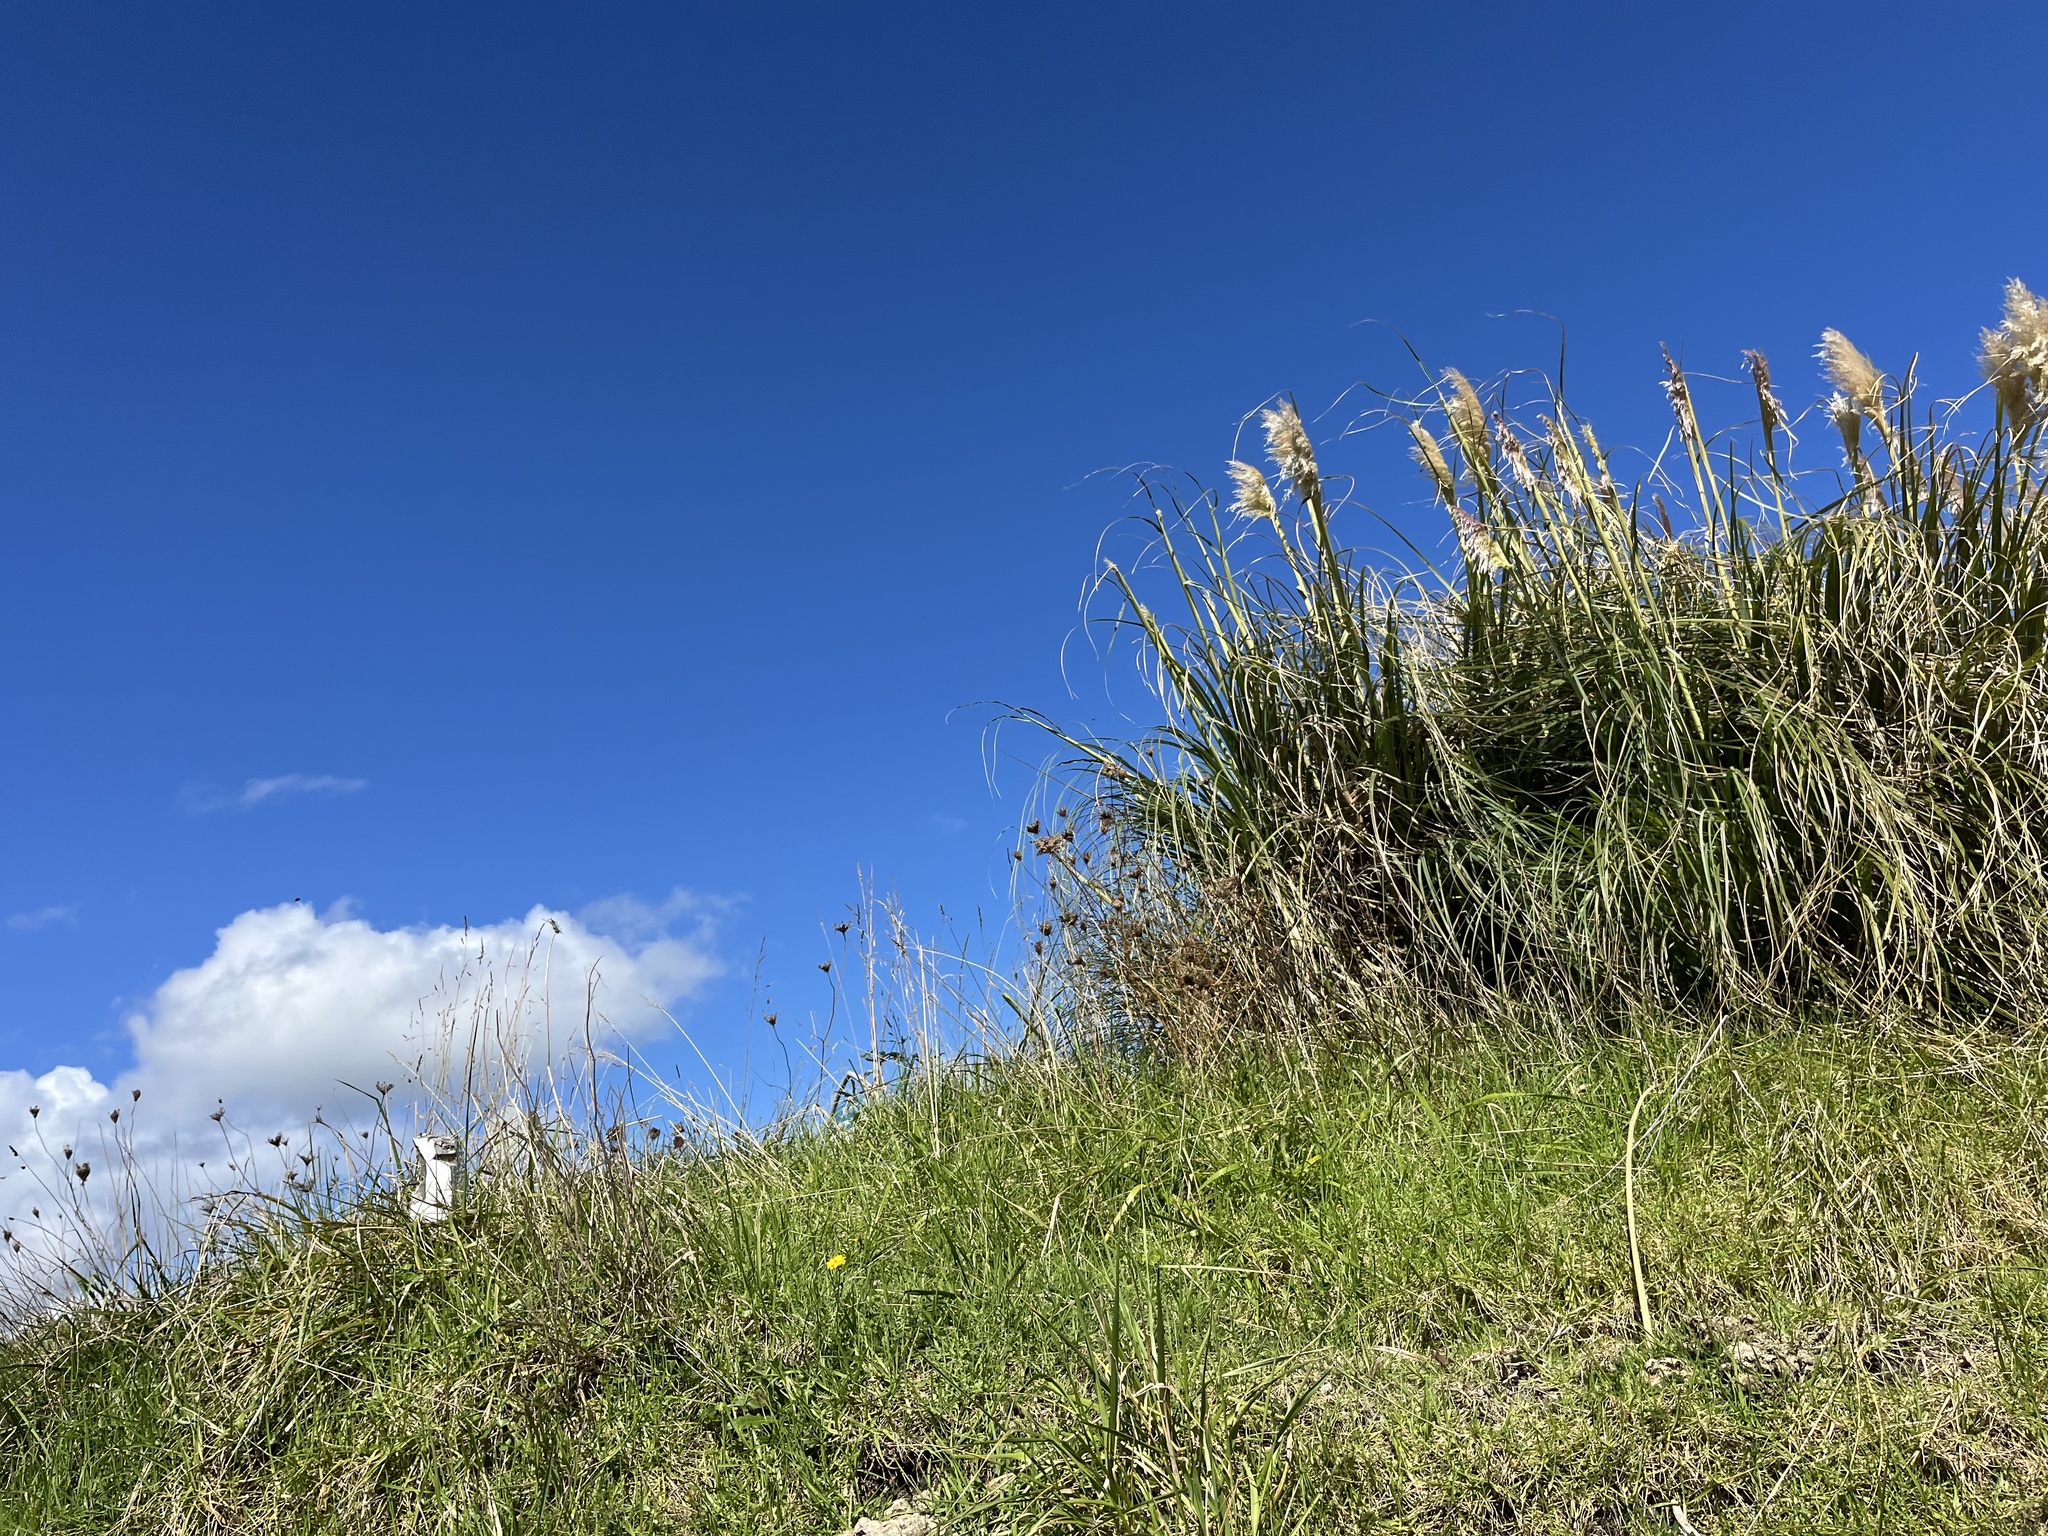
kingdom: Plantae
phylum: Tracheophyta
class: Liliopsida
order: Poales
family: Poaceae
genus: Cortaderia
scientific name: Cortaderia selloana
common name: Uruguayan pampas grass
